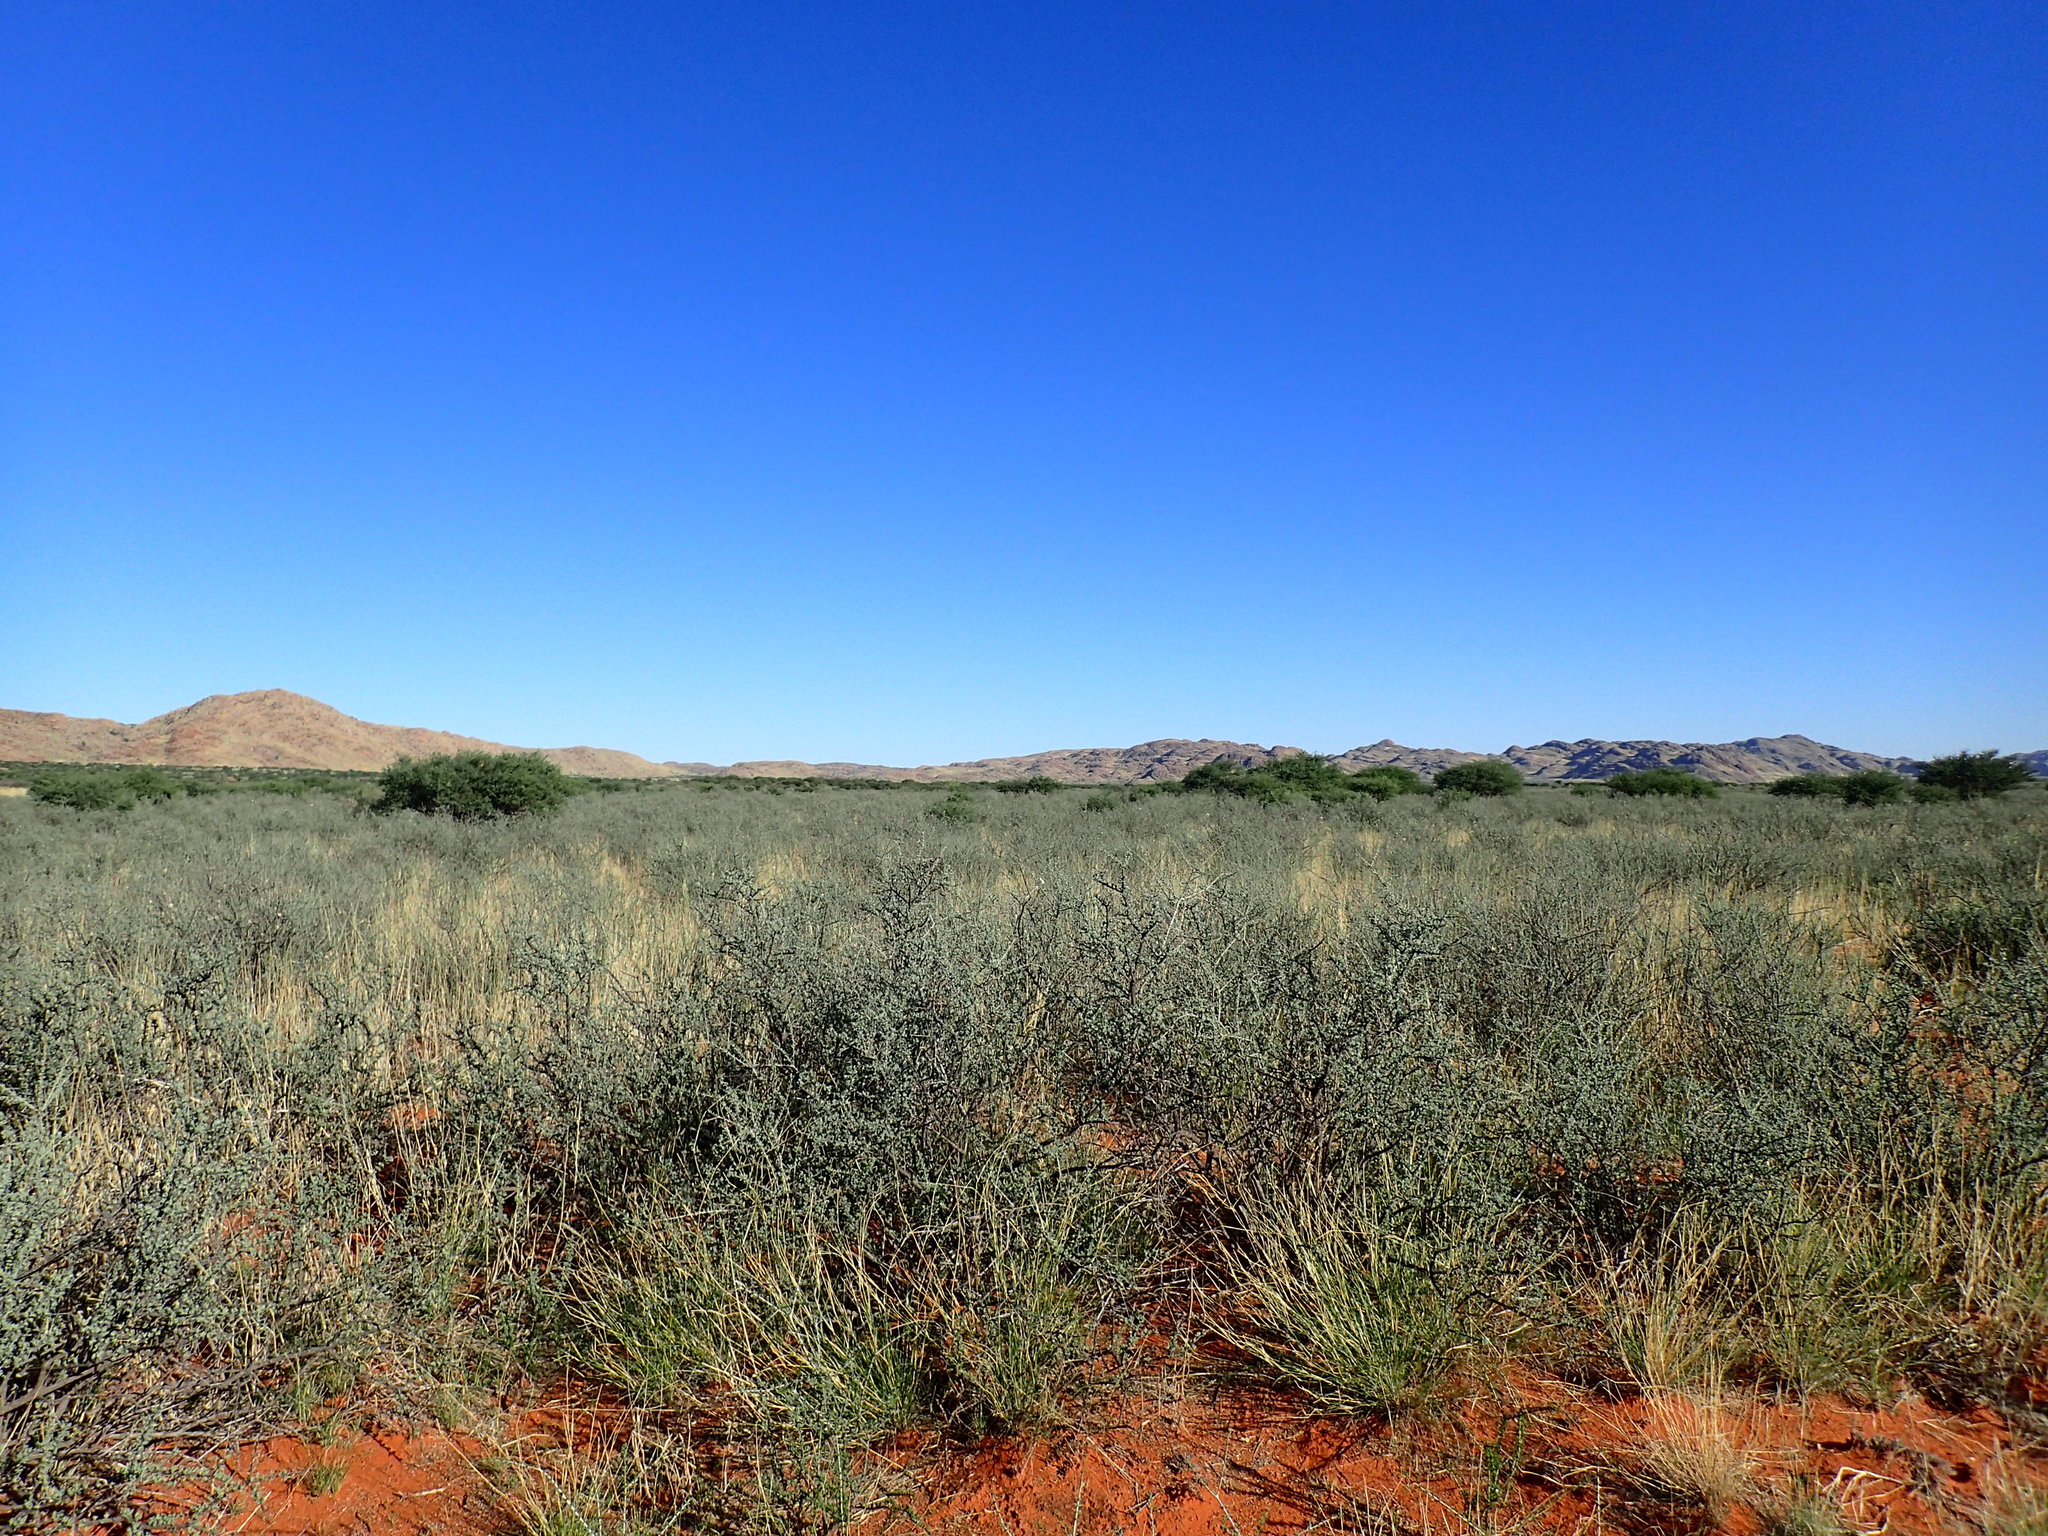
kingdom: Plantae
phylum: Tracheophyta
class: Magnoliopsida
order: Lamiales
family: Bignoniaceae
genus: Rhigozum
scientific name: Rhigozum trichotomum
